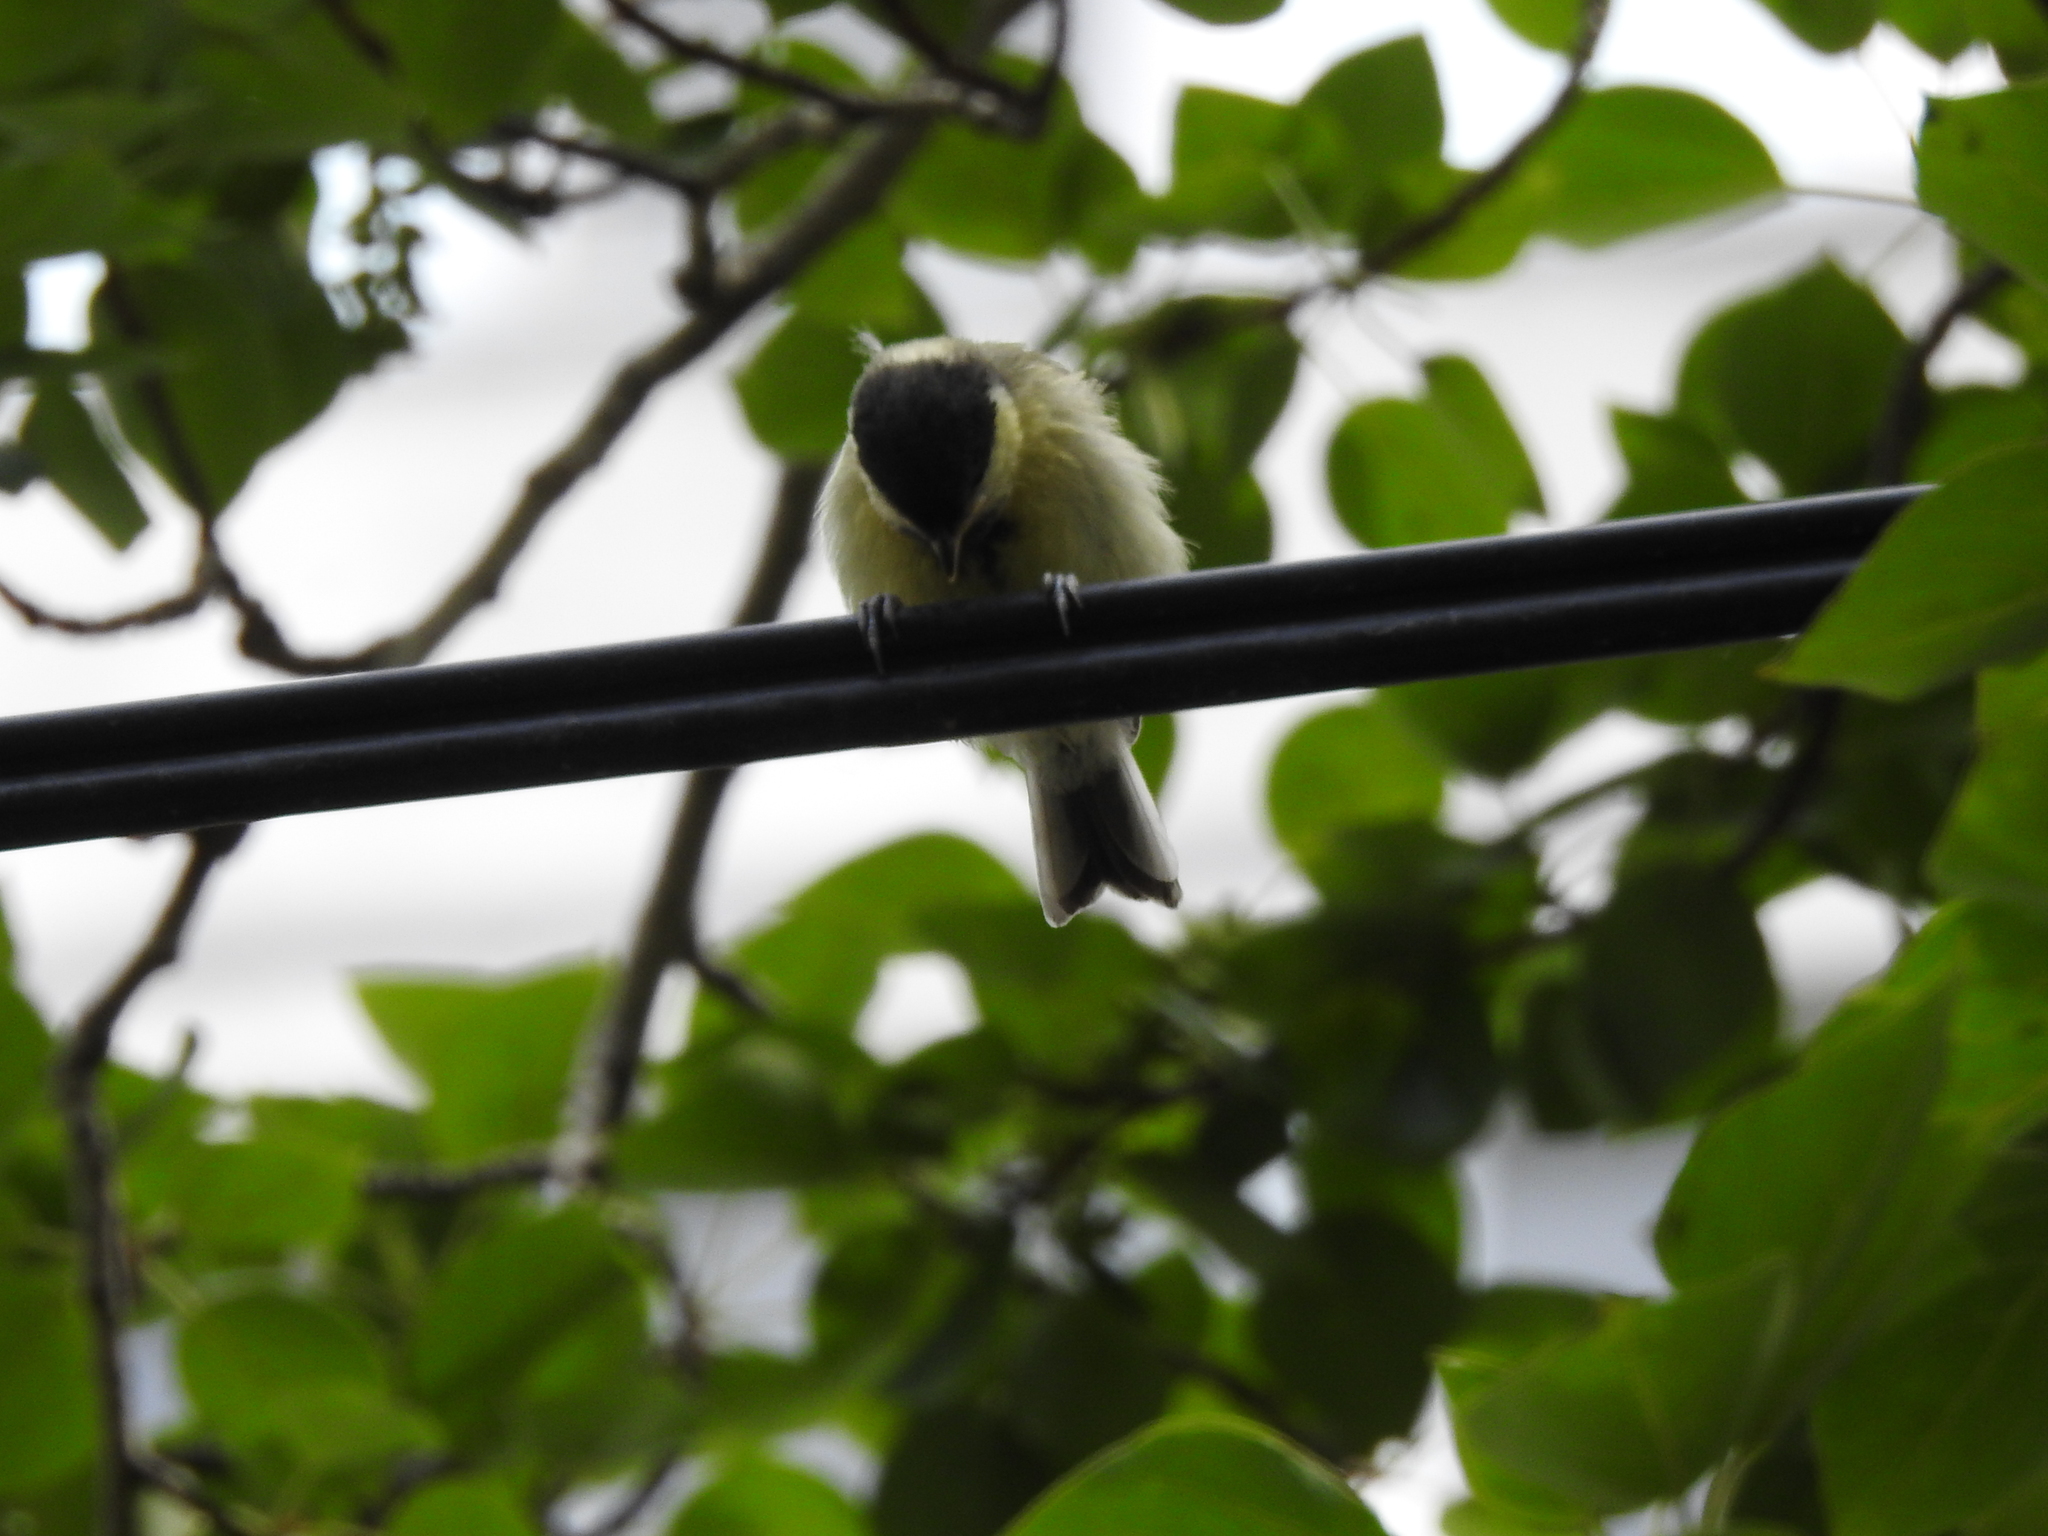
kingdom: Animalia
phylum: Chordata
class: Aves
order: Passeriformes
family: Paridae
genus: Parus
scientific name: Parus major
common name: Great tit
